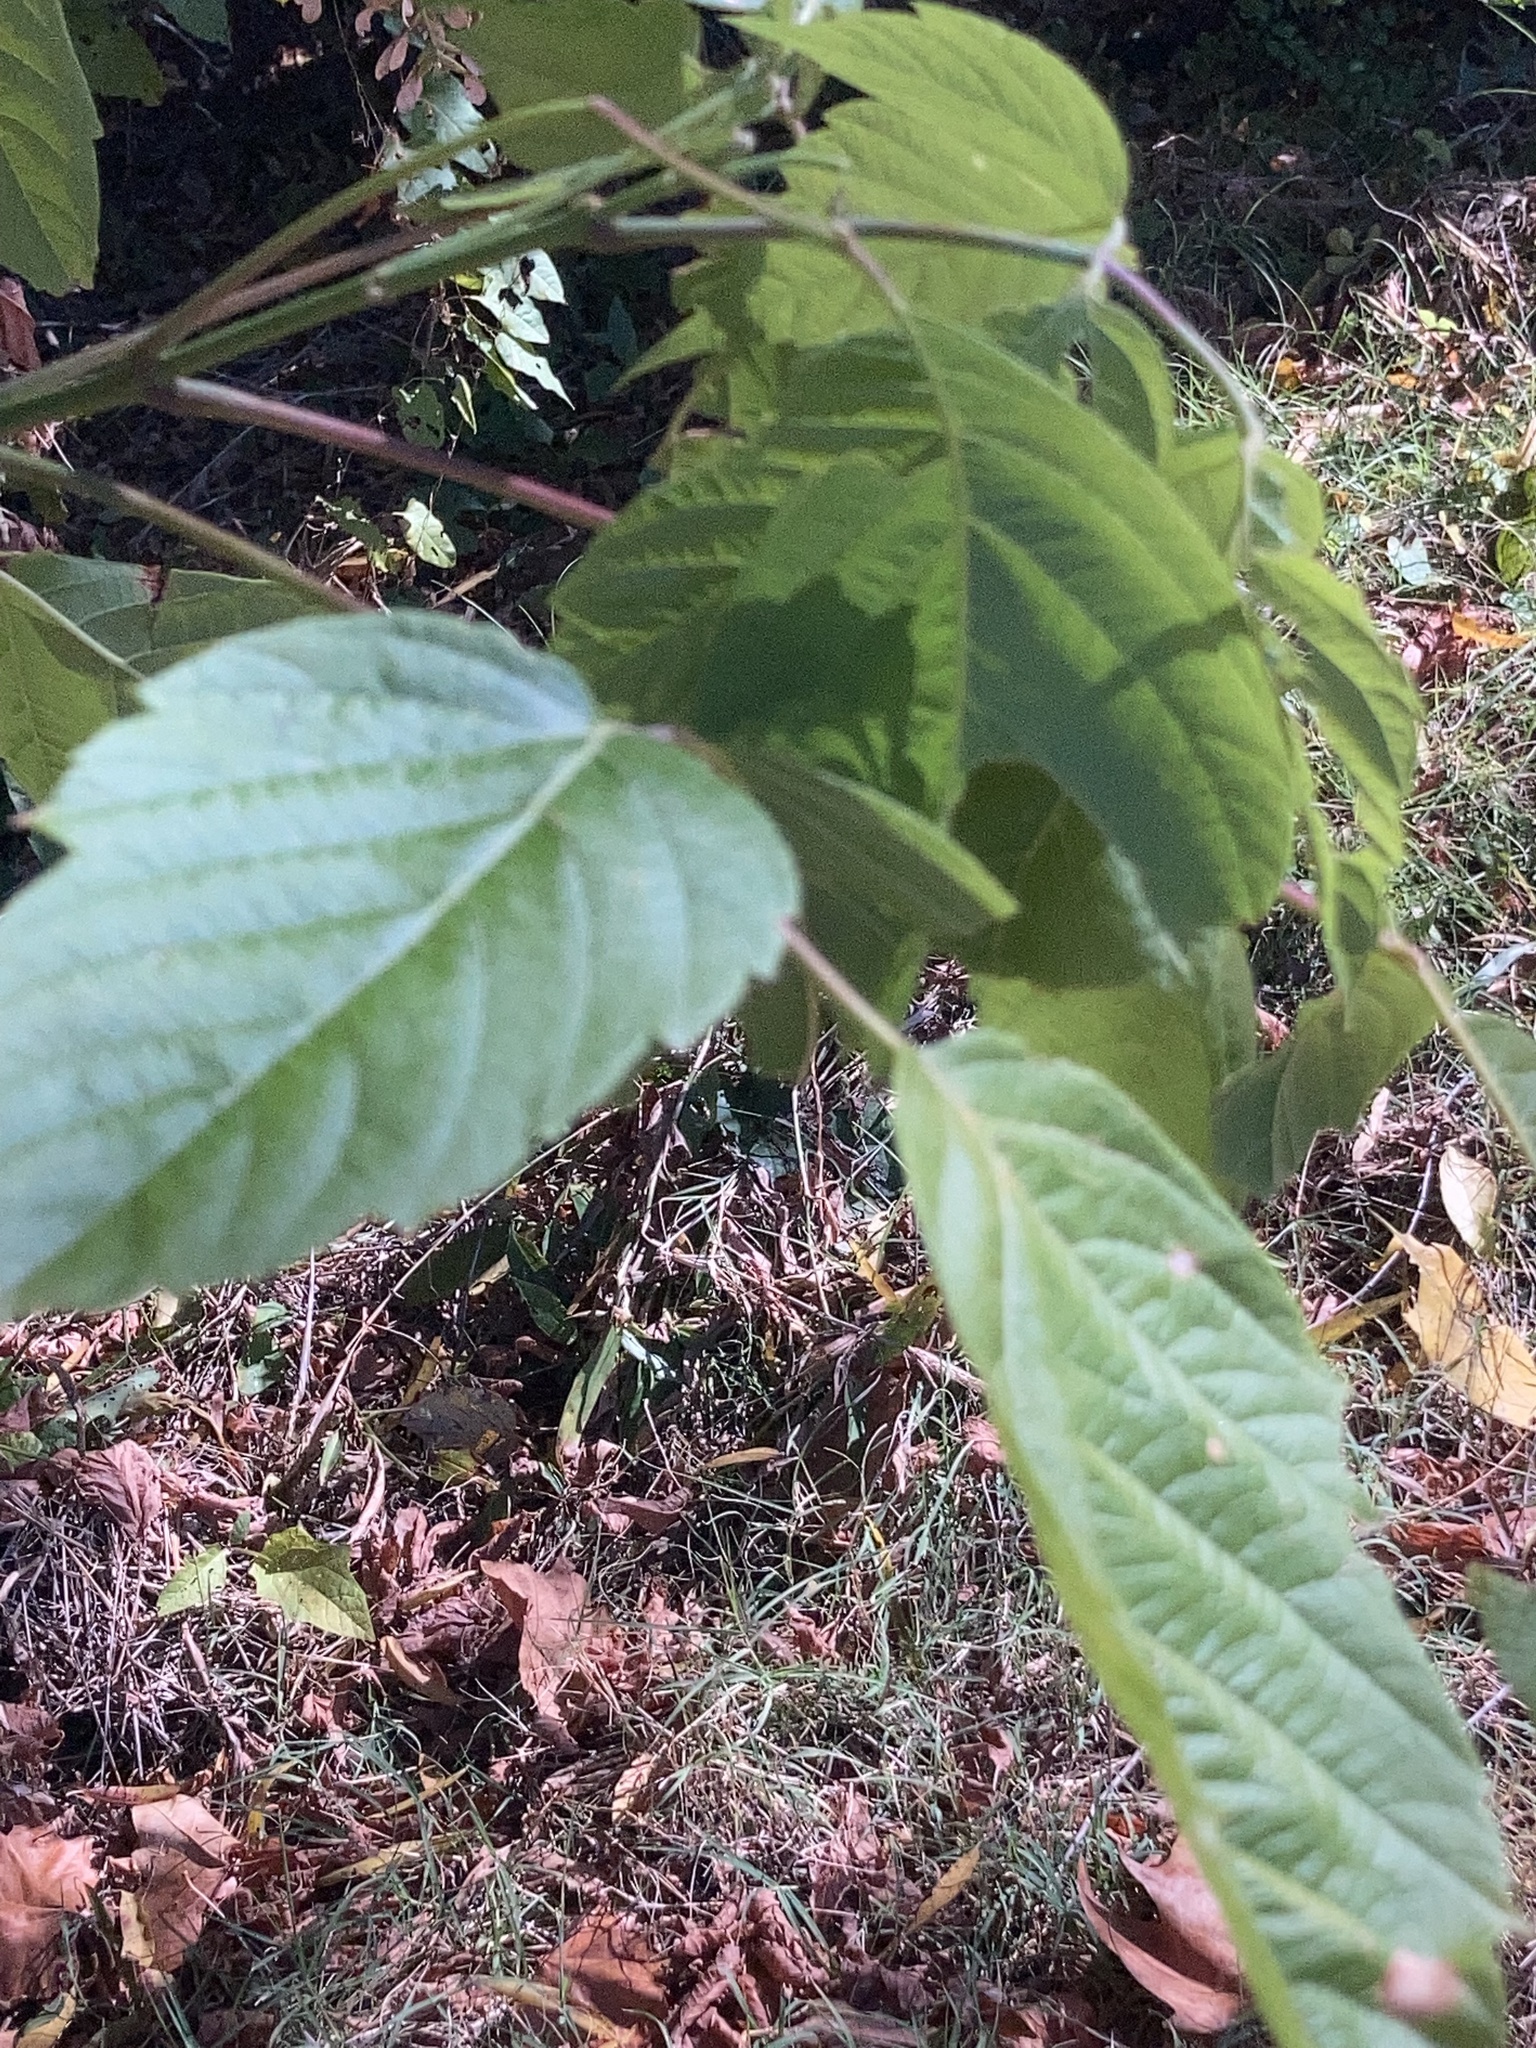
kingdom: Plantae
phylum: Tracheophyta
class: Magnoliopsida
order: Sapindales
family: Sapindaceae
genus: Acer
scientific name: Acer negundo
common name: Ashleaf maple
